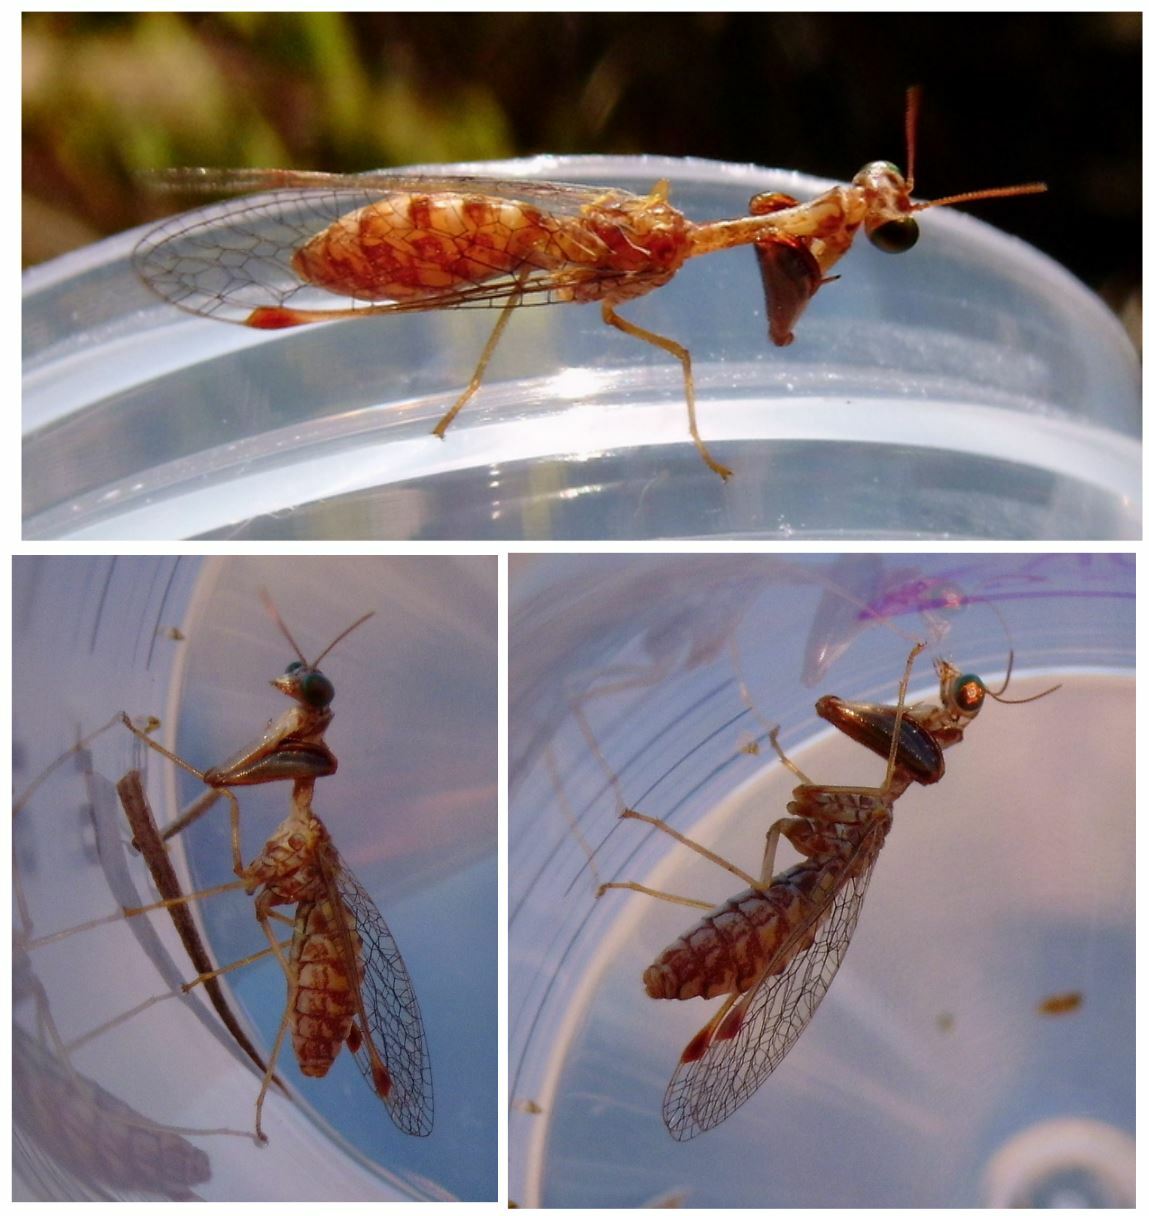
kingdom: Animalia
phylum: Arthropoda
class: Insecta
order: Neuroptera
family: Mantispidae
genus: Mantispa
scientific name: Mantispa styriaca
